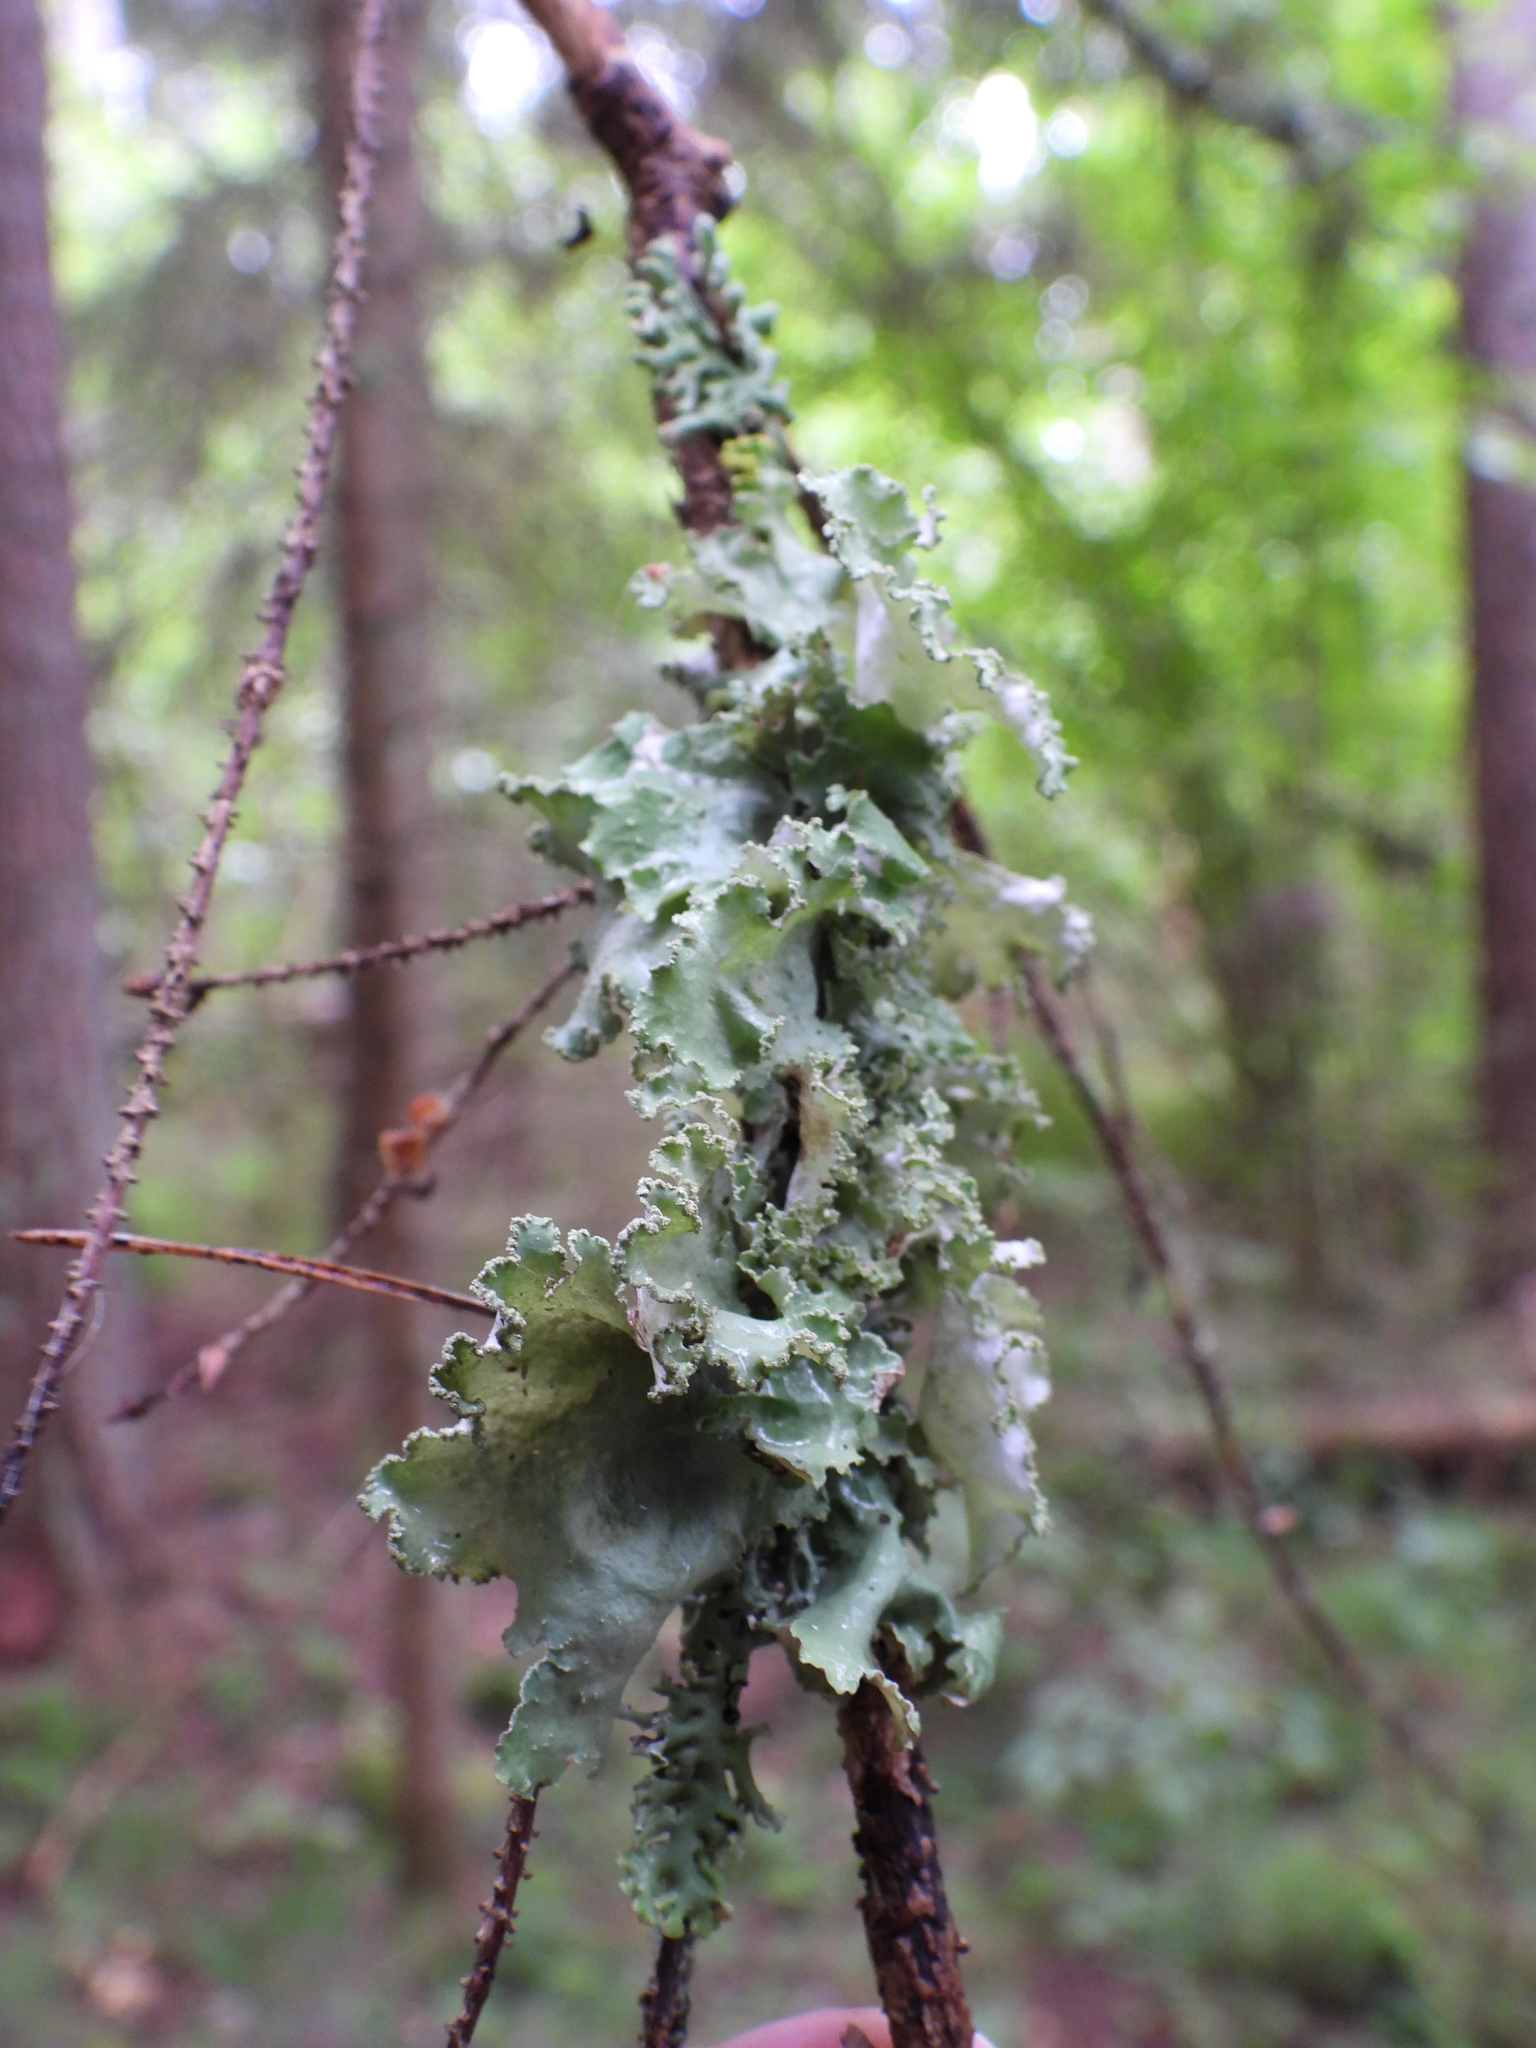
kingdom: Fungi
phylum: Ascomycota
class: Lecanoromycetes
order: Lecanorales
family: Parmeliaceae
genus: Platismatia
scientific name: Platismatia glauca
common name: Varied rag lichen
